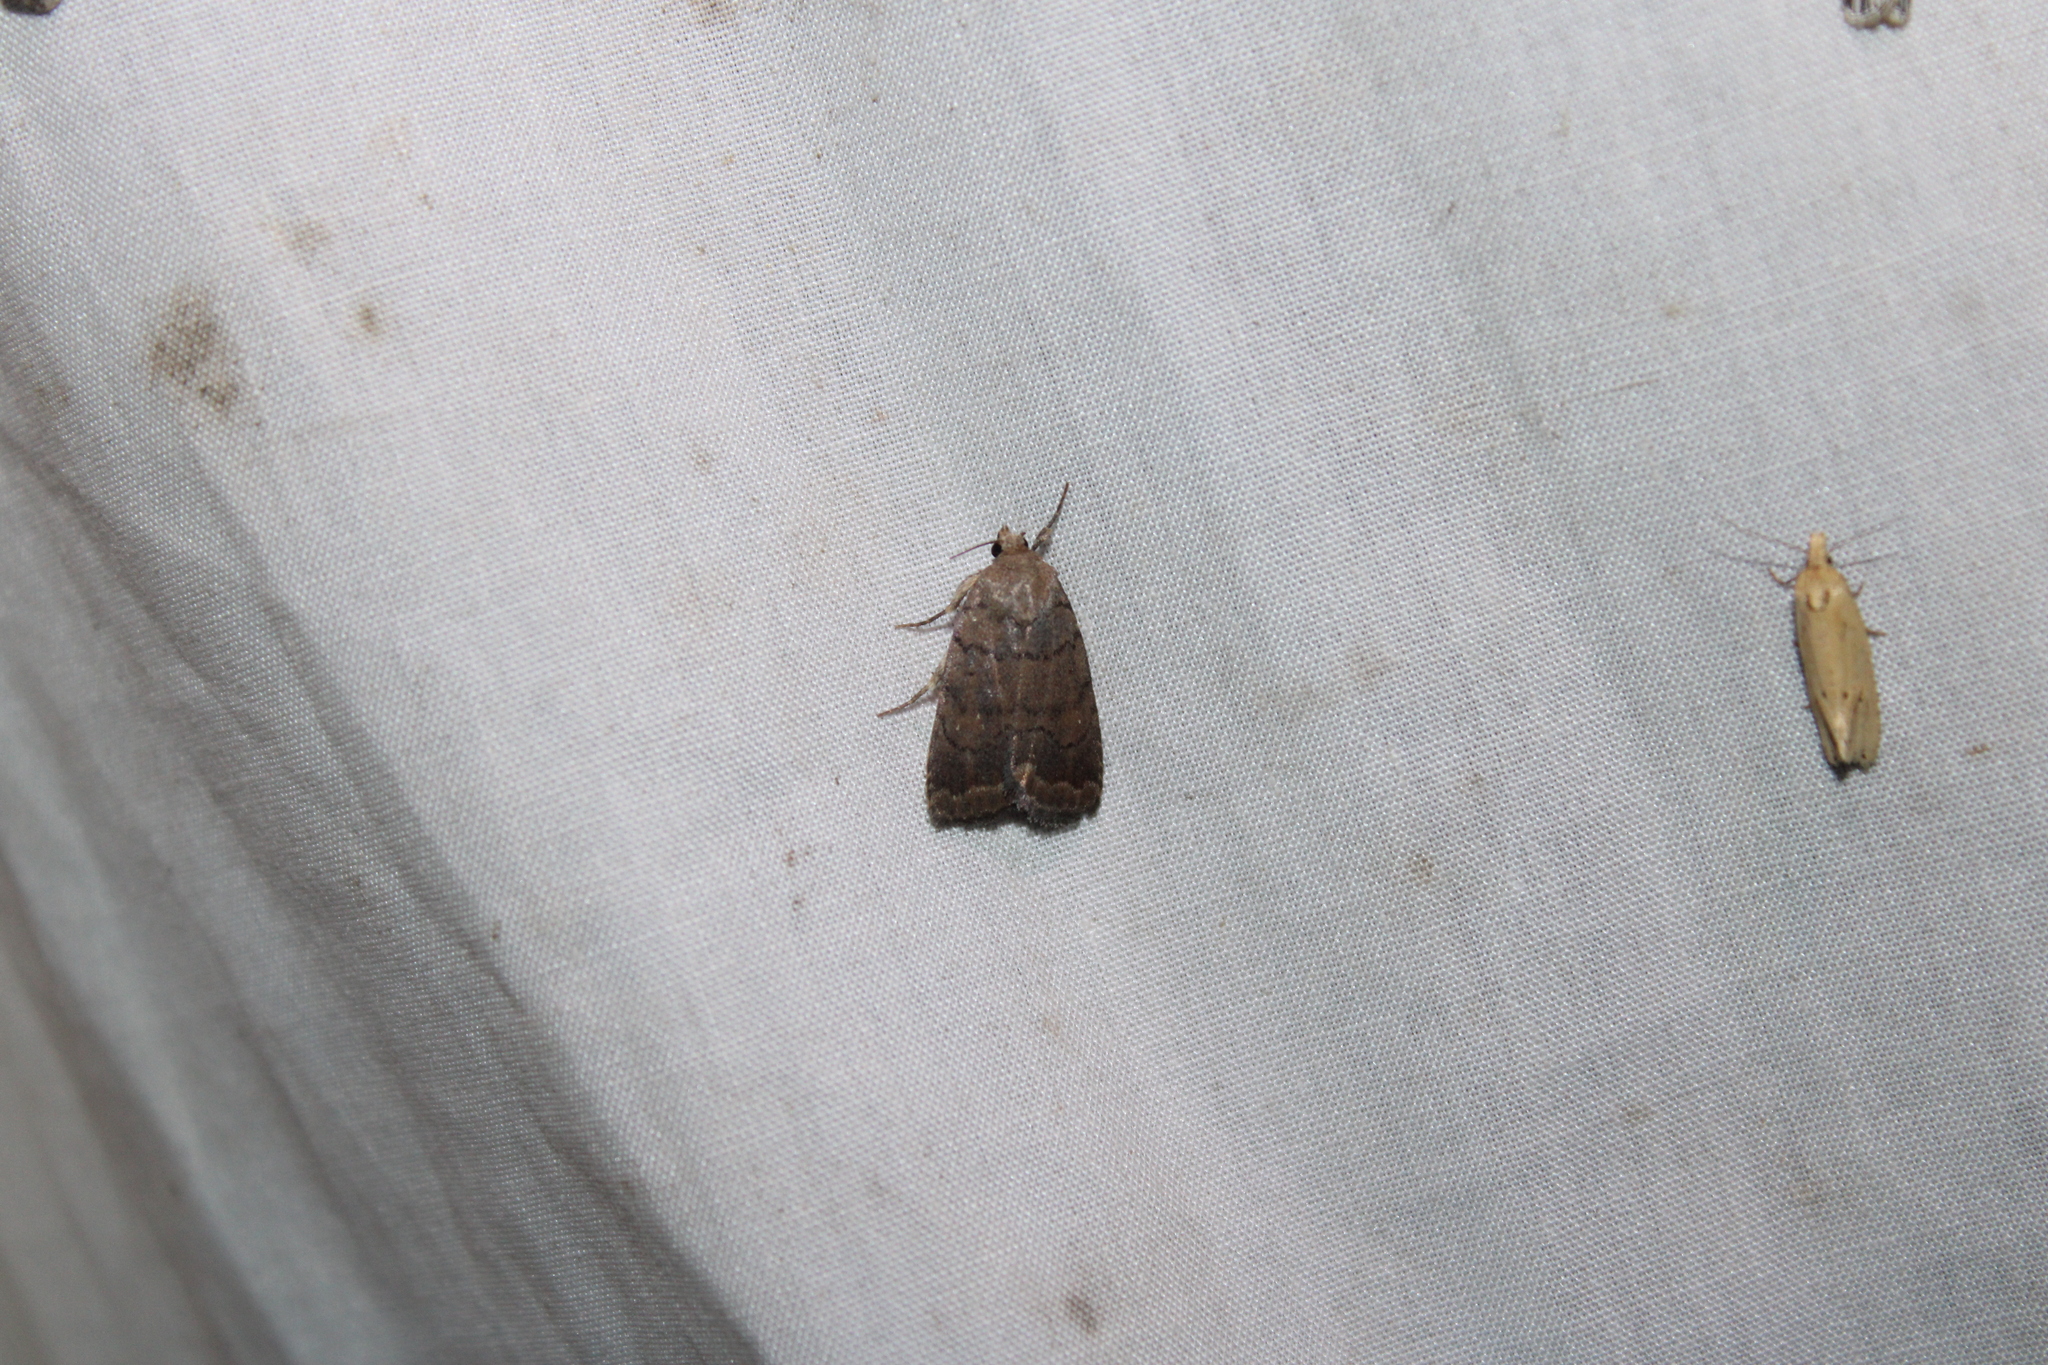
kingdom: Animalia
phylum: Arthropoda
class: Insecta
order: Lepidoptera
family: Noctuidae
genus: Athetis
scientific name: Athetis tarda
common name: Slowpoke moth
